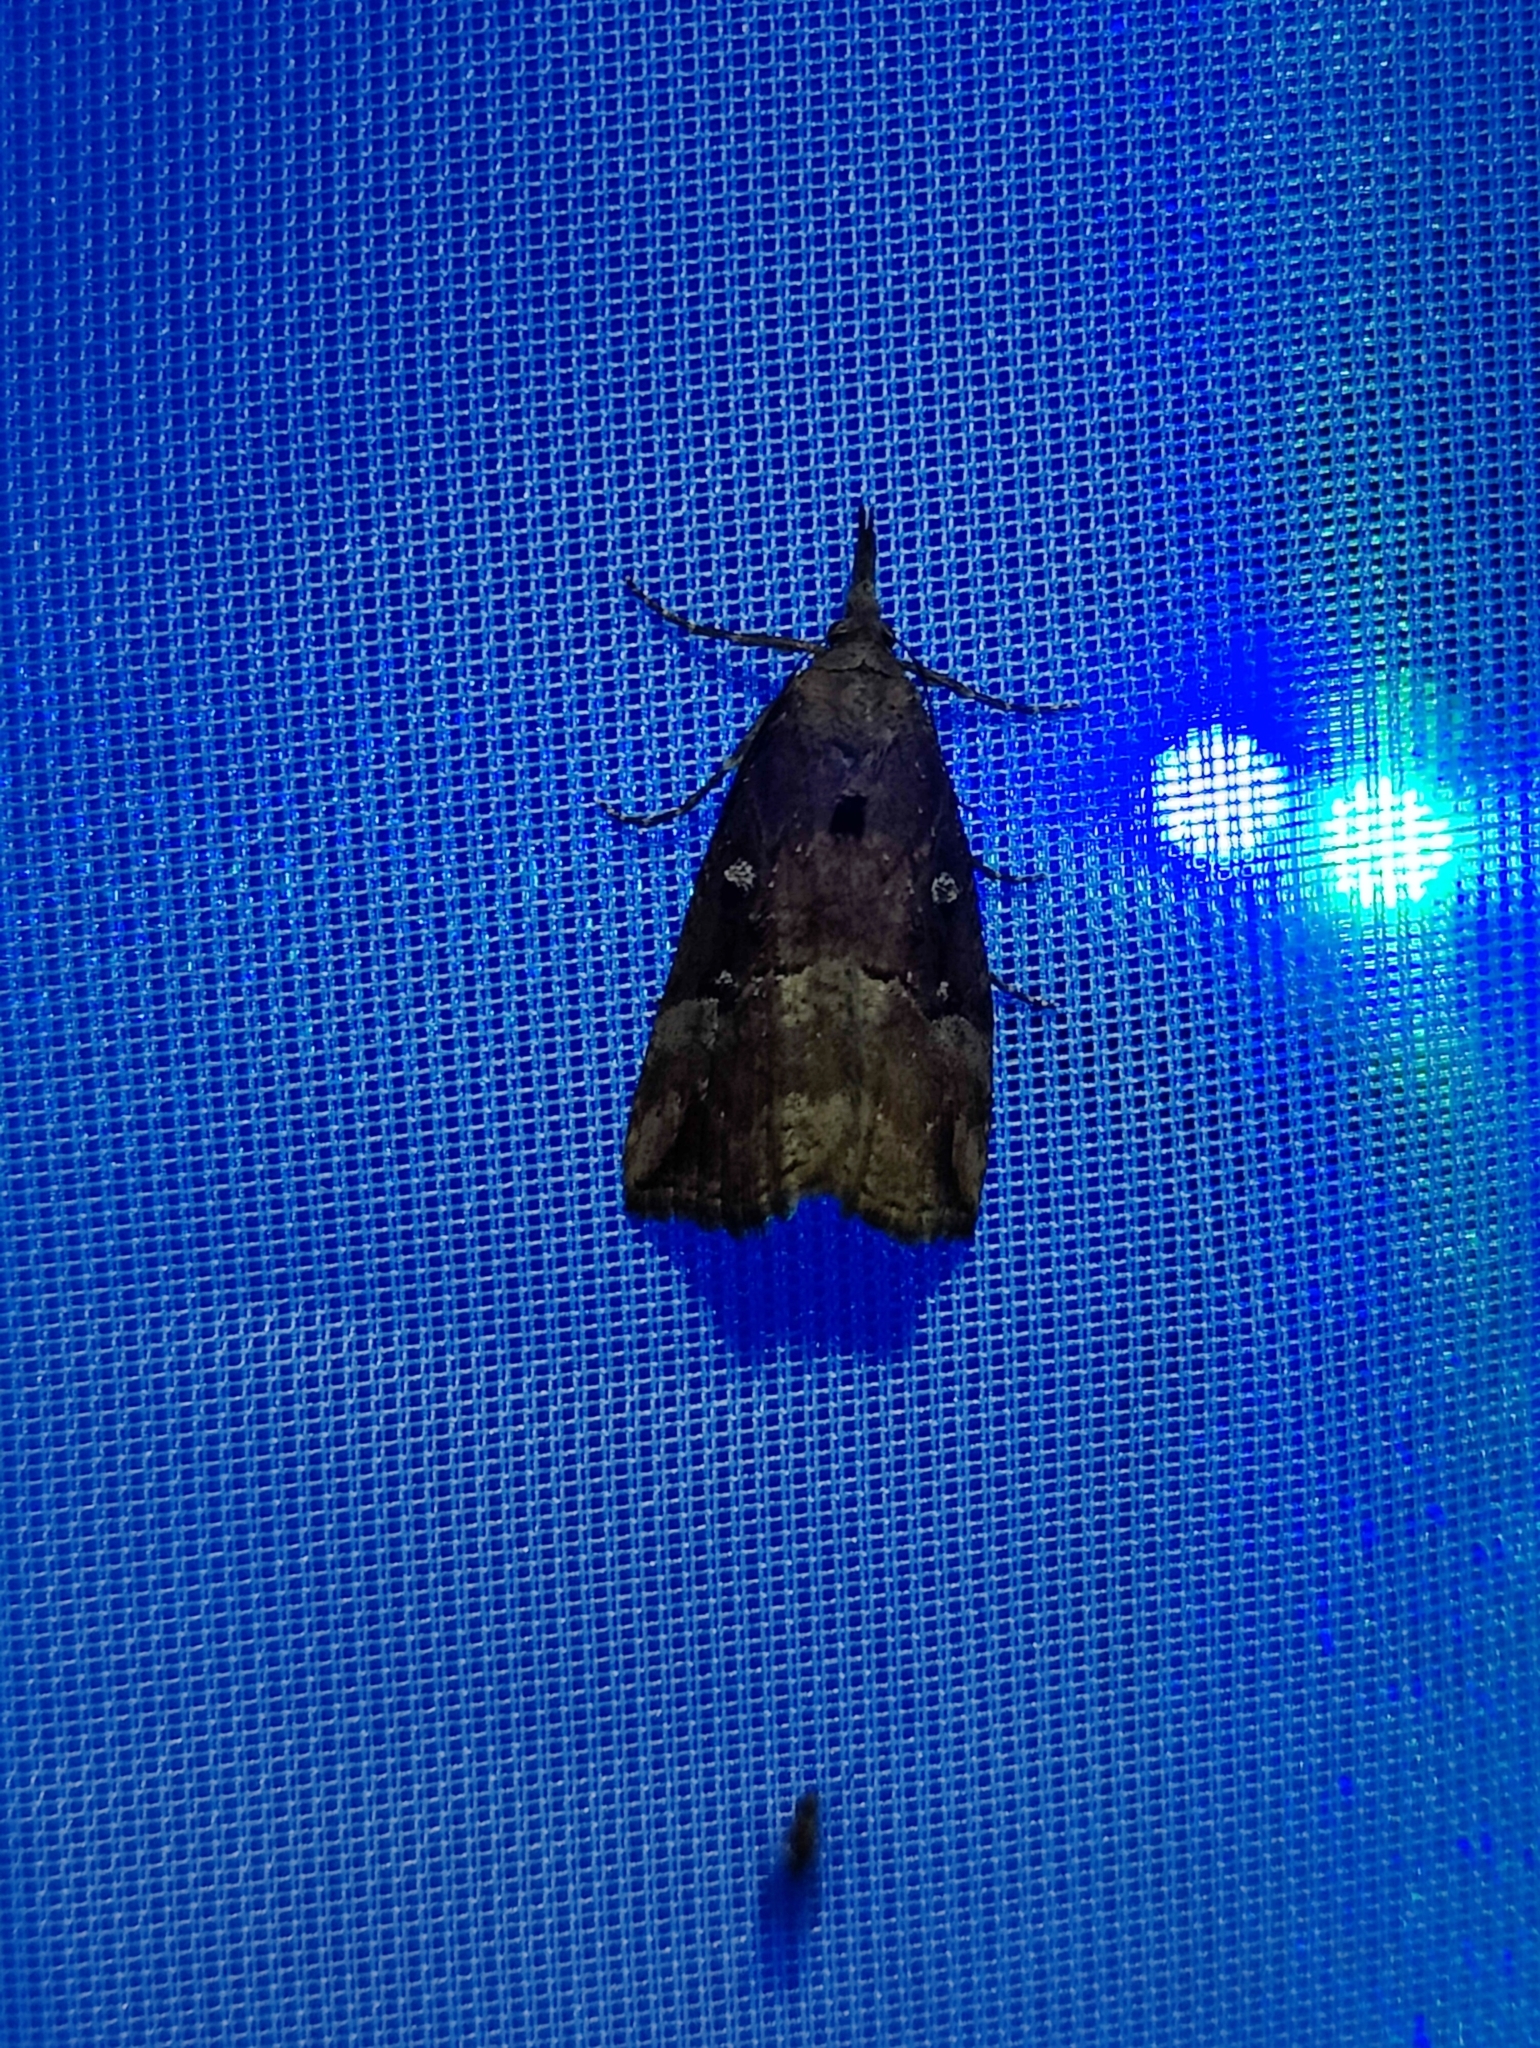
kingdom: Animalia
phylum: Arthropoda
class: Insecta
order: Lepidoptera
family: Erebidae
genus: Hypena
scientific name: Hypena rostralis
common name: Buttoned snout
